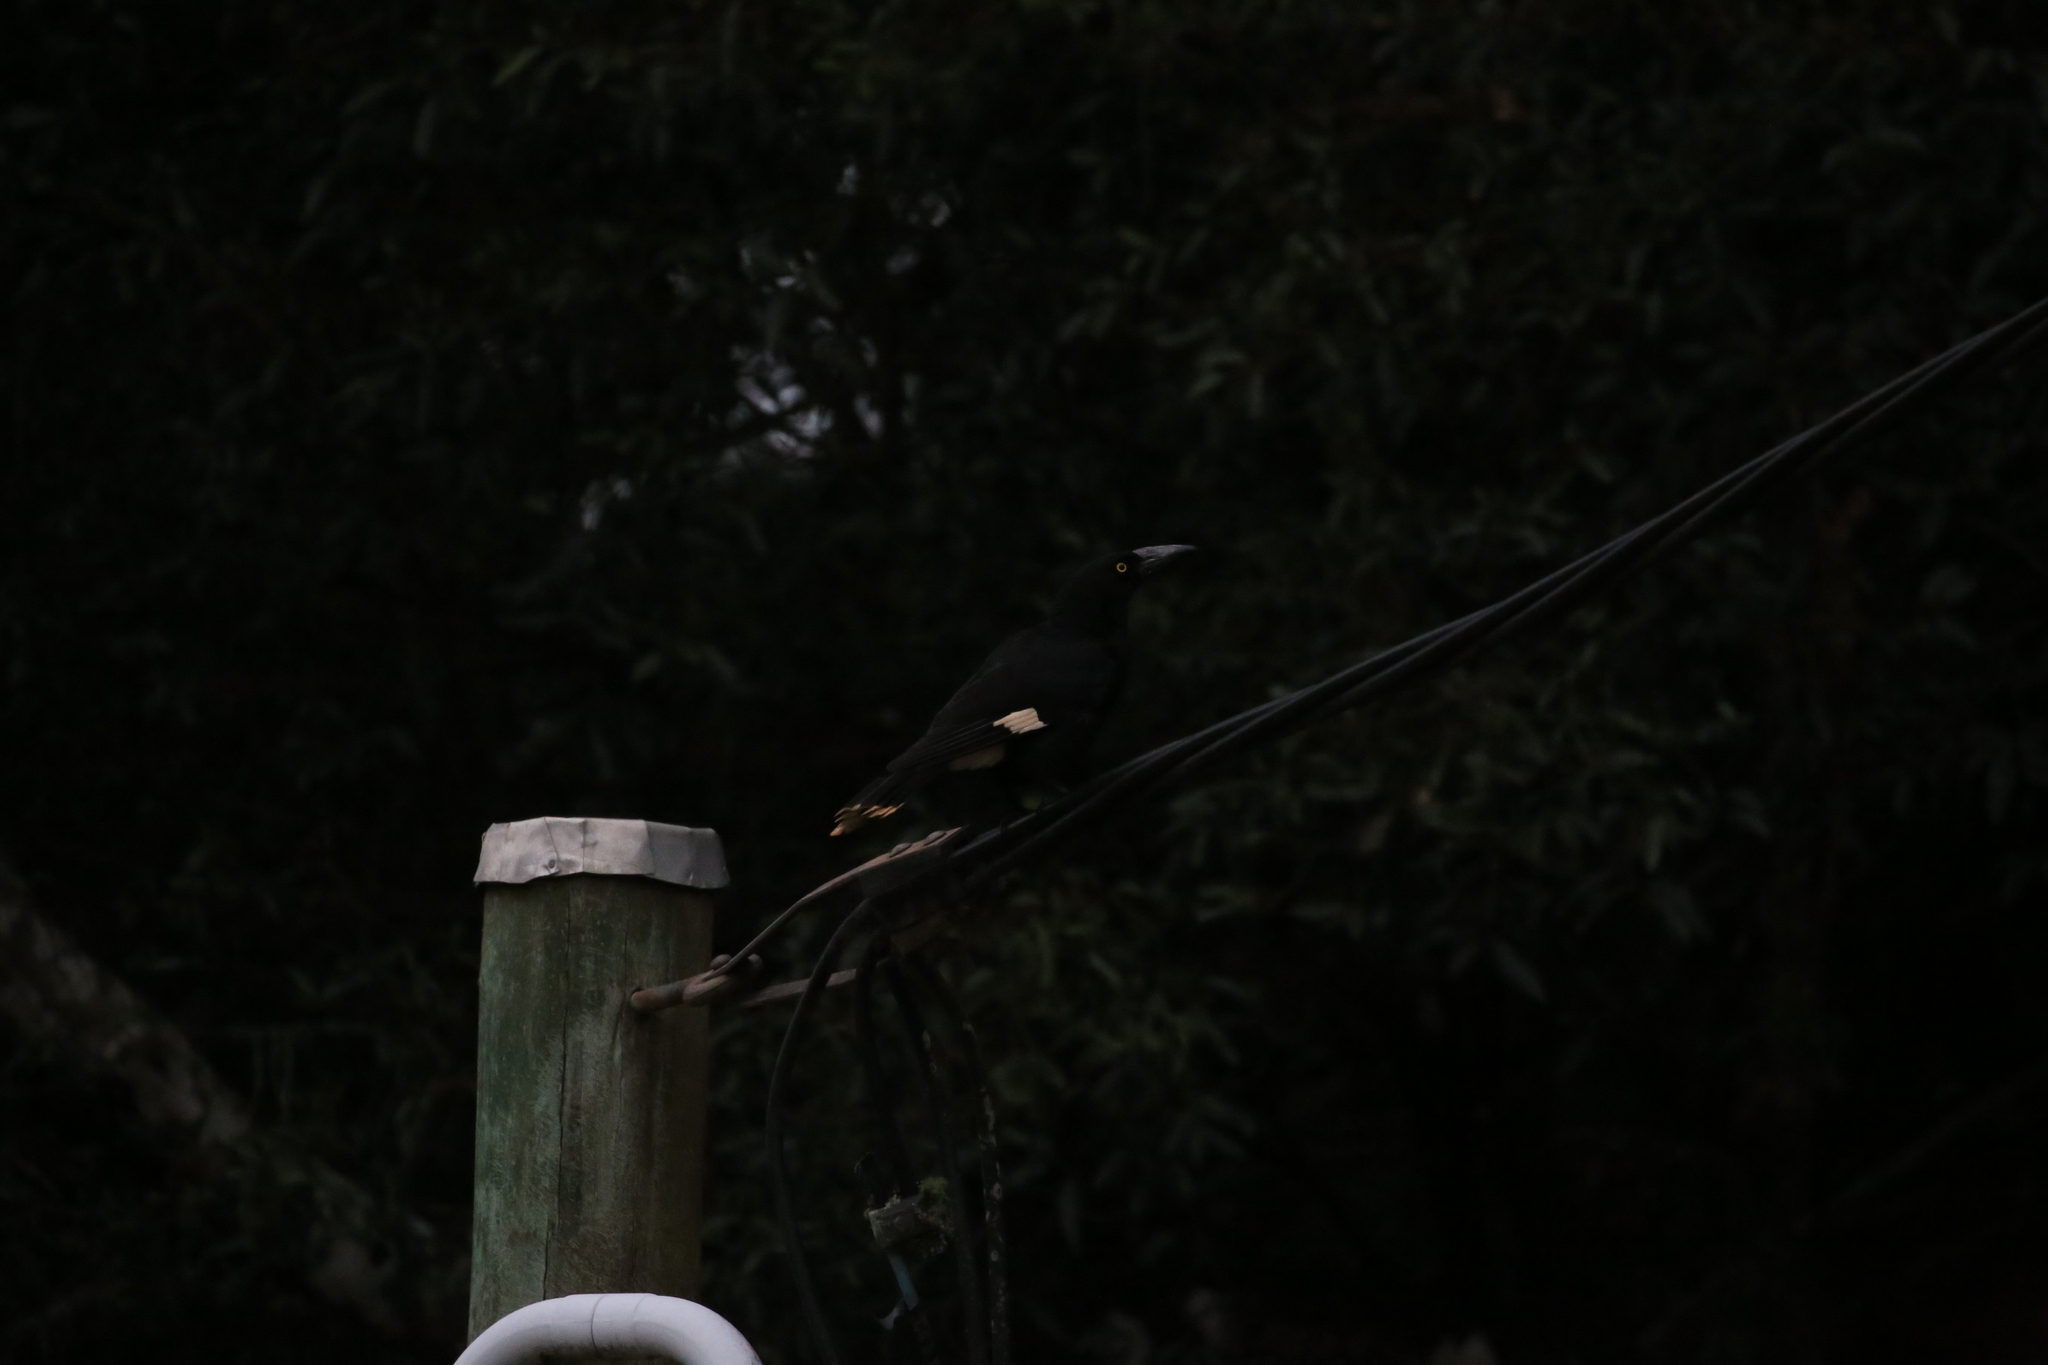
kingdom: Animalia
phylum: Chordata
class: Aves
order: Passeriformes
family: Cracticidae
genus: Strepera
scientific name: Strepera graculina
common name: Pied currawong
